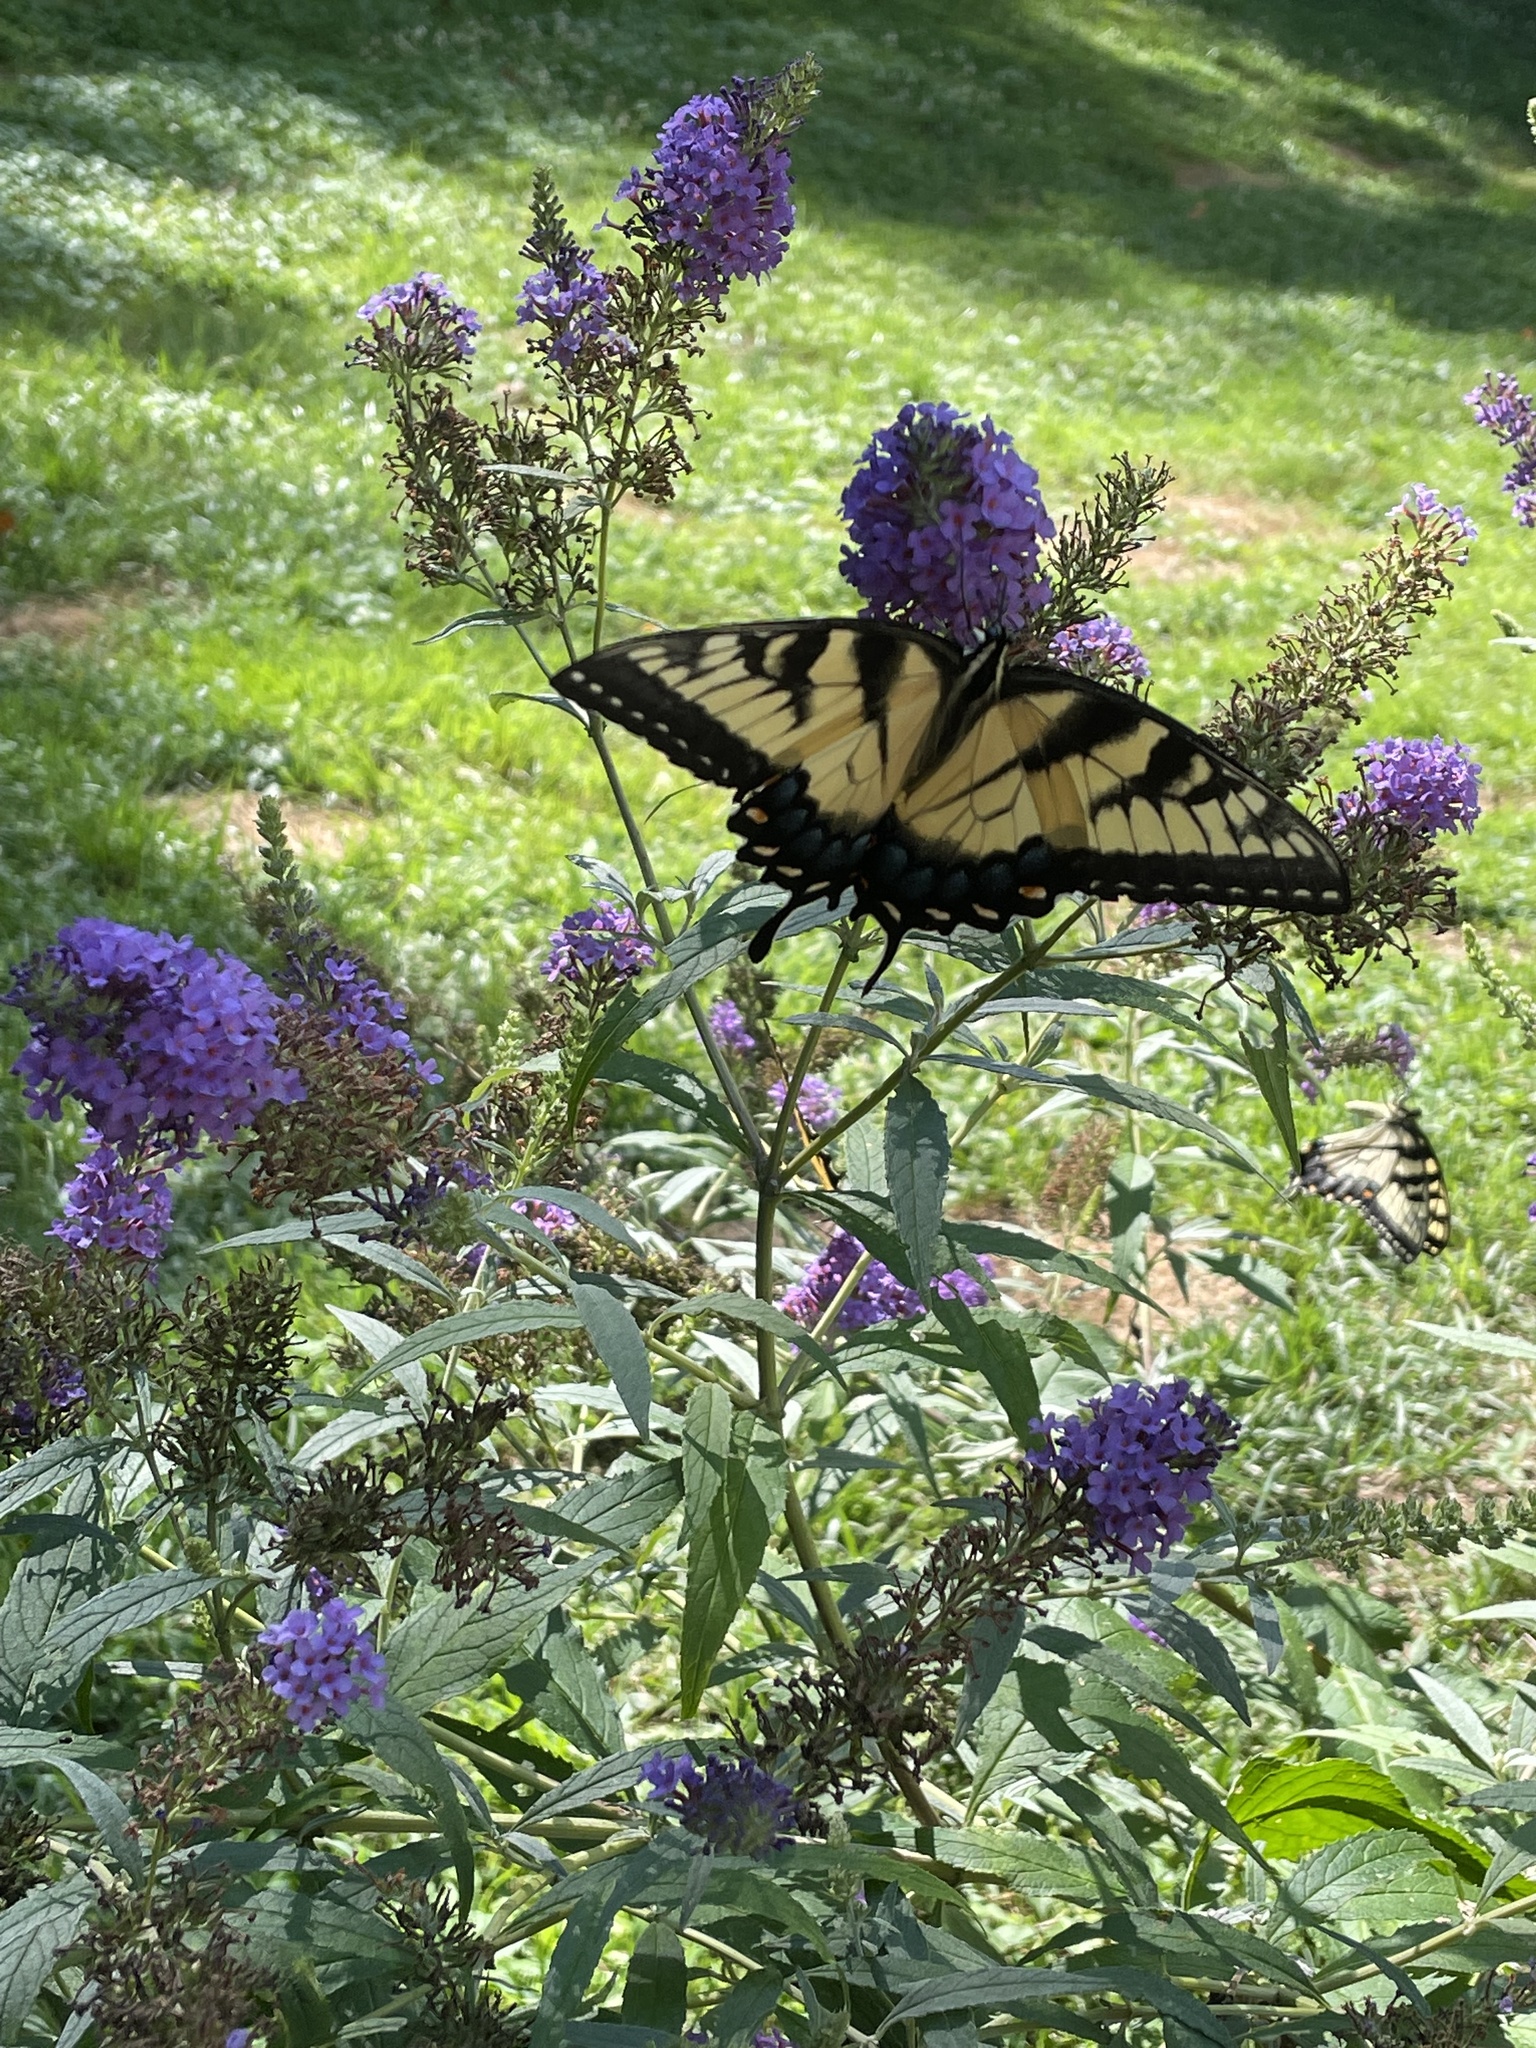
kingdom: Animalia
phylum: Arthropoda
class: Insecta
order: Lepidoptera
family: Papilionidae
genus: Papilio
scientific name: Papilio glaucus
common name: Tiger swallowtail
